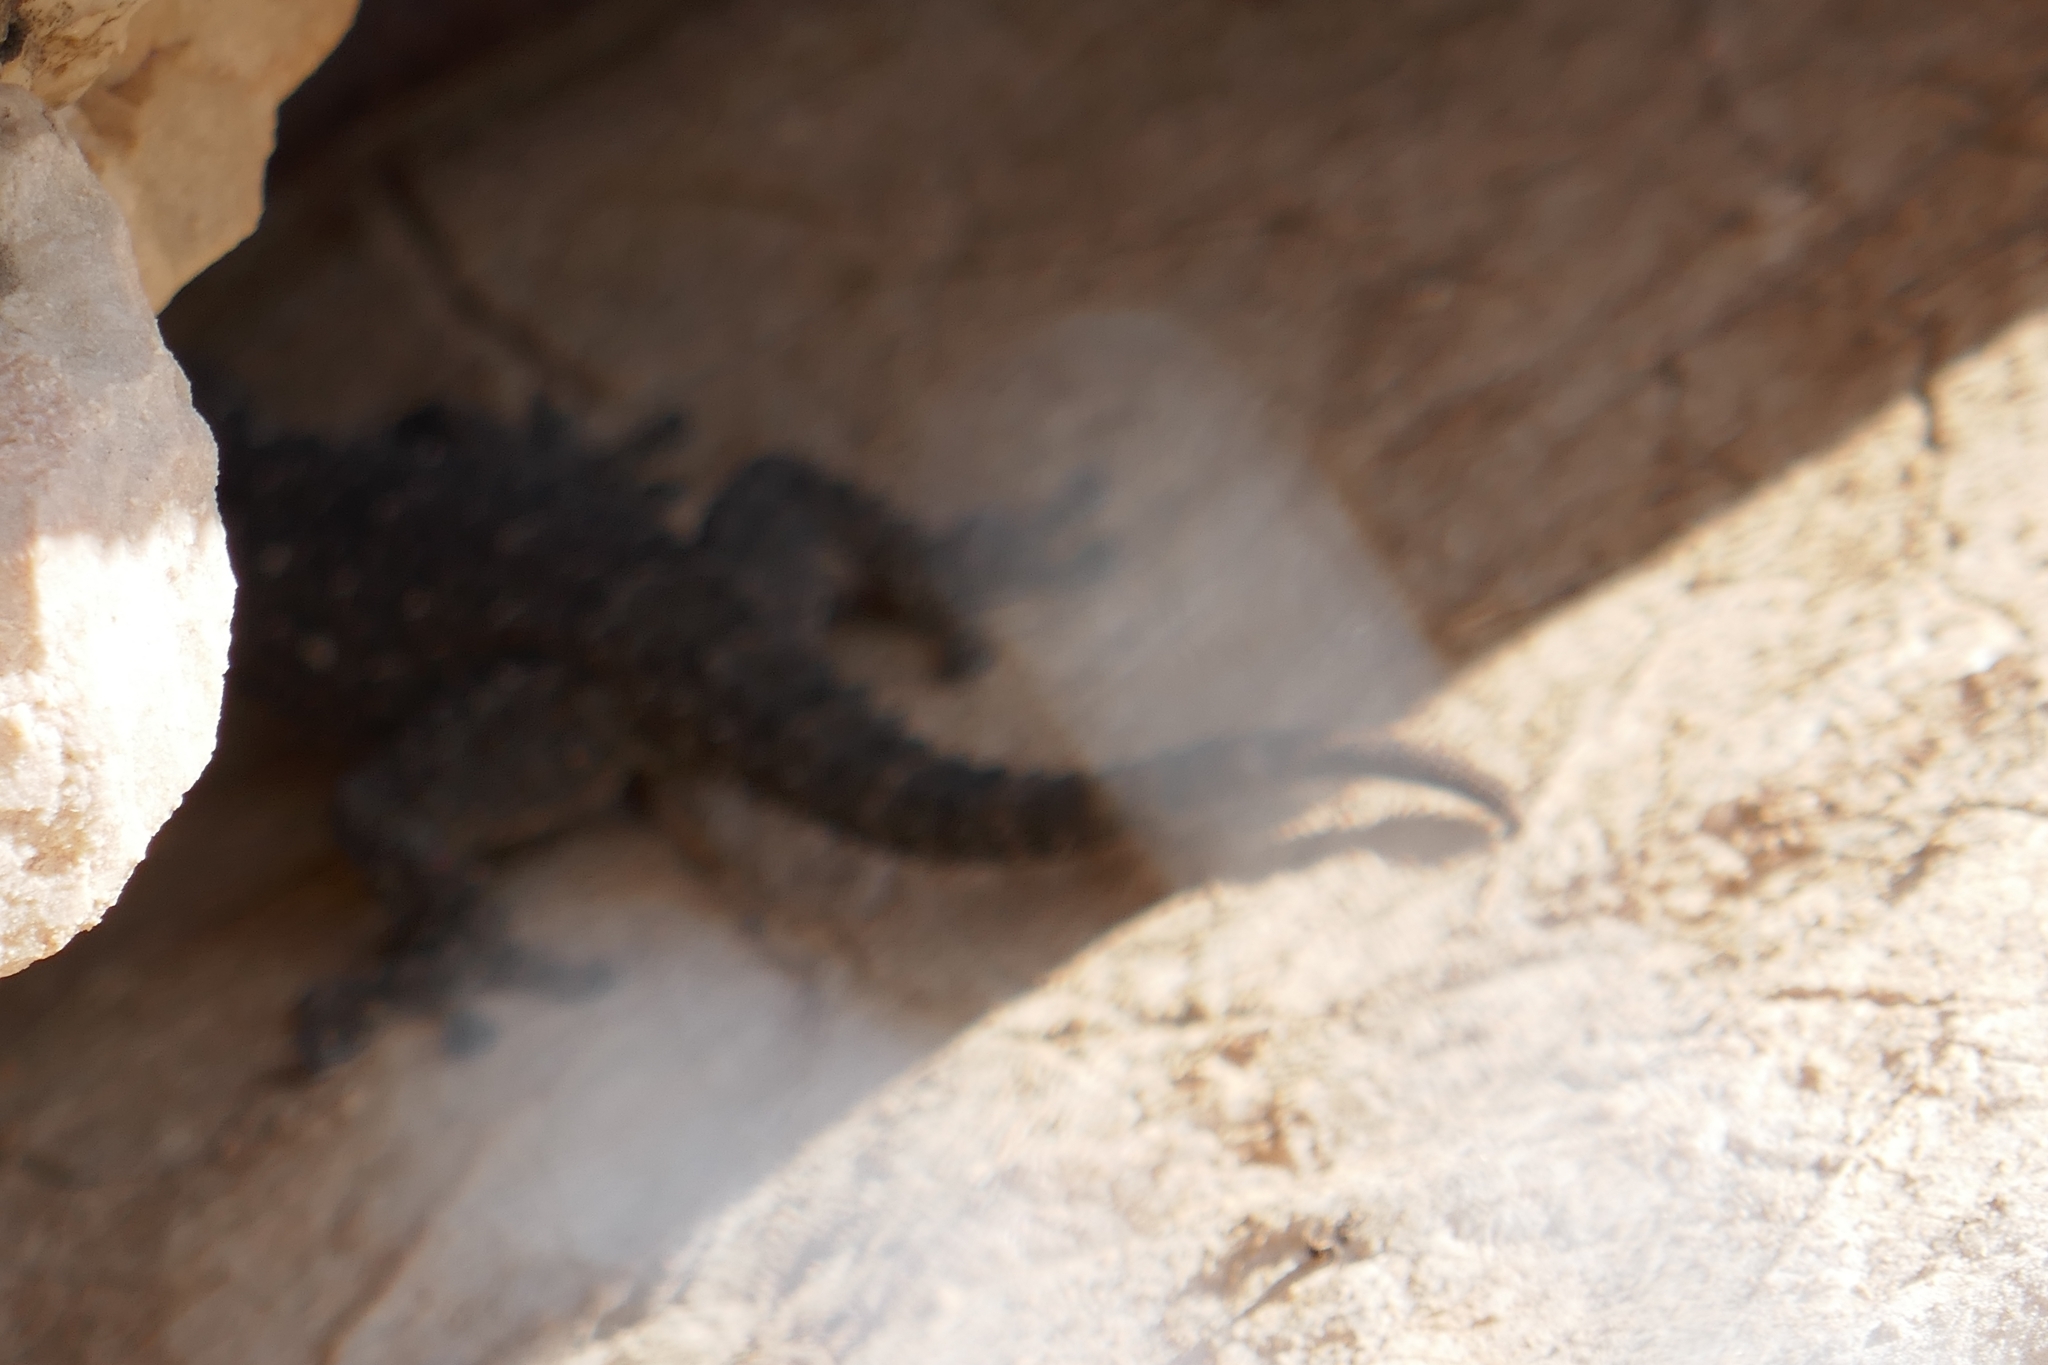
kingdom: Animalia
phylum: Chordata
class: Squamata
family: Phyllodactylidae
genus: Tarentola
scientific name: Tarentola mauritanica
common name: Moorish gecko
